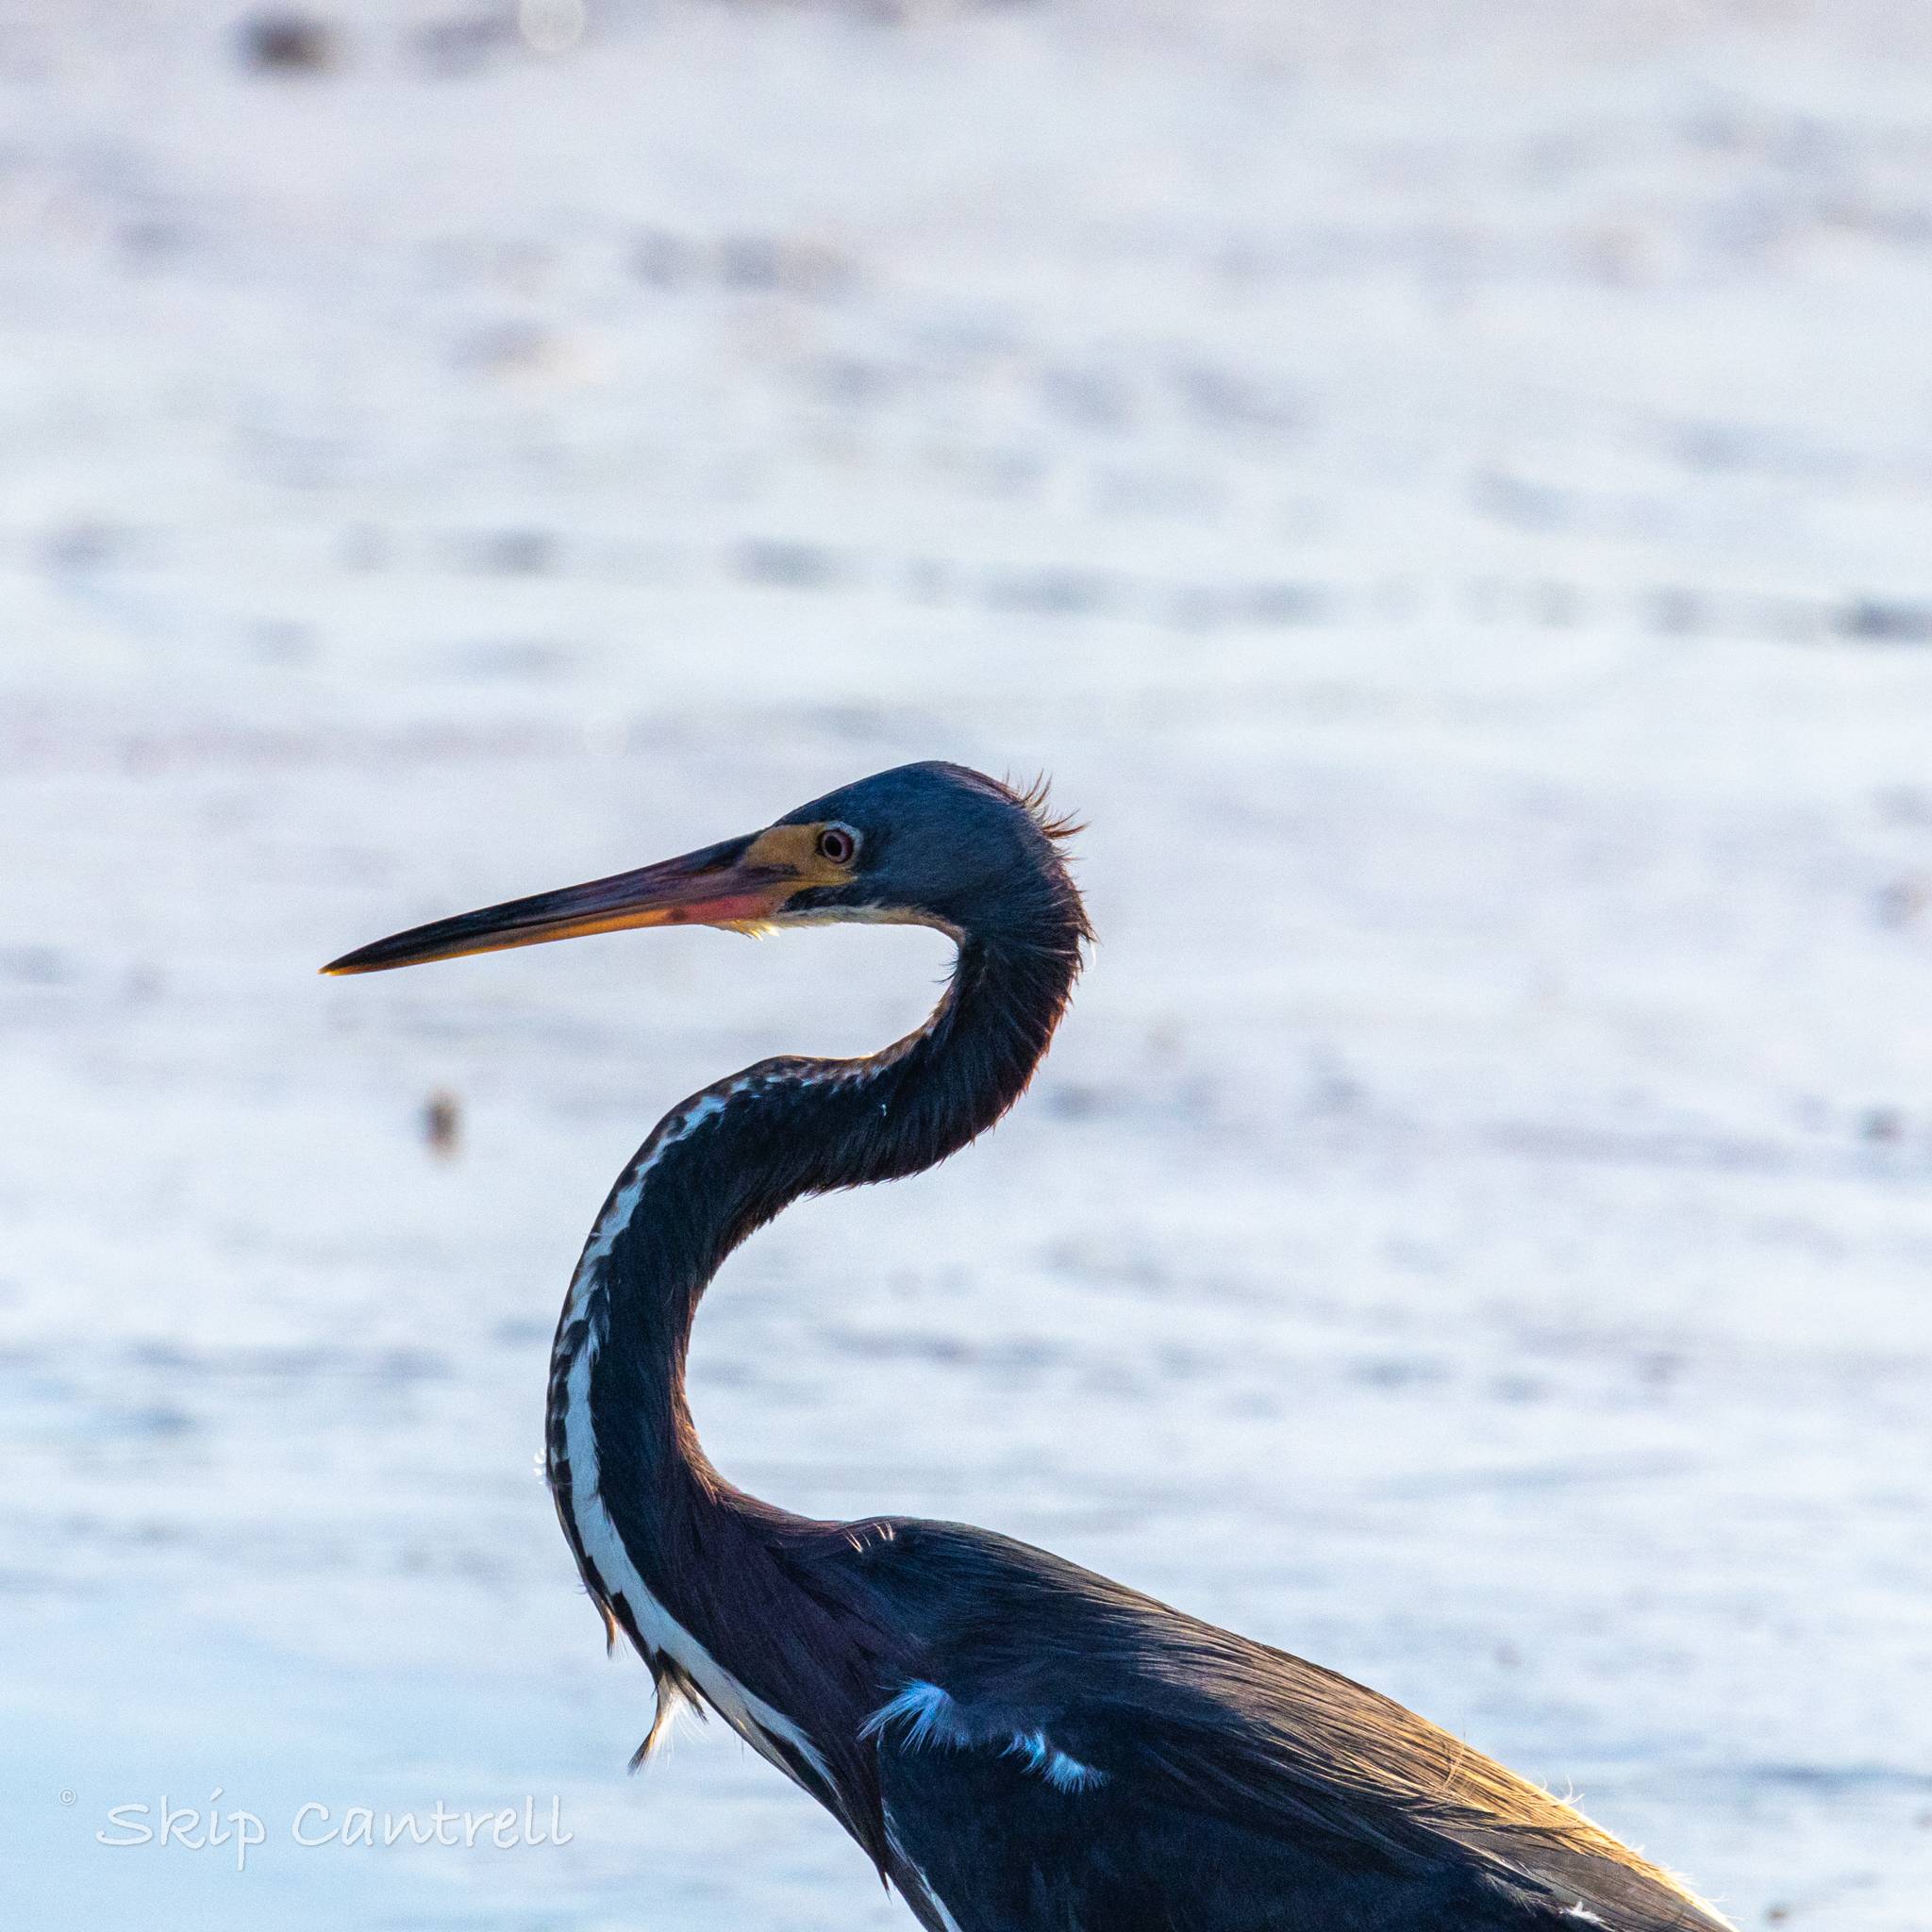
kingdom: Animalia
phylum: Chordata
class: Aves
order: Pelecaniformes
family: Ardeidae
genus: Egretta
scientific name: Egretta tricolor
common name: Tricolored heron
